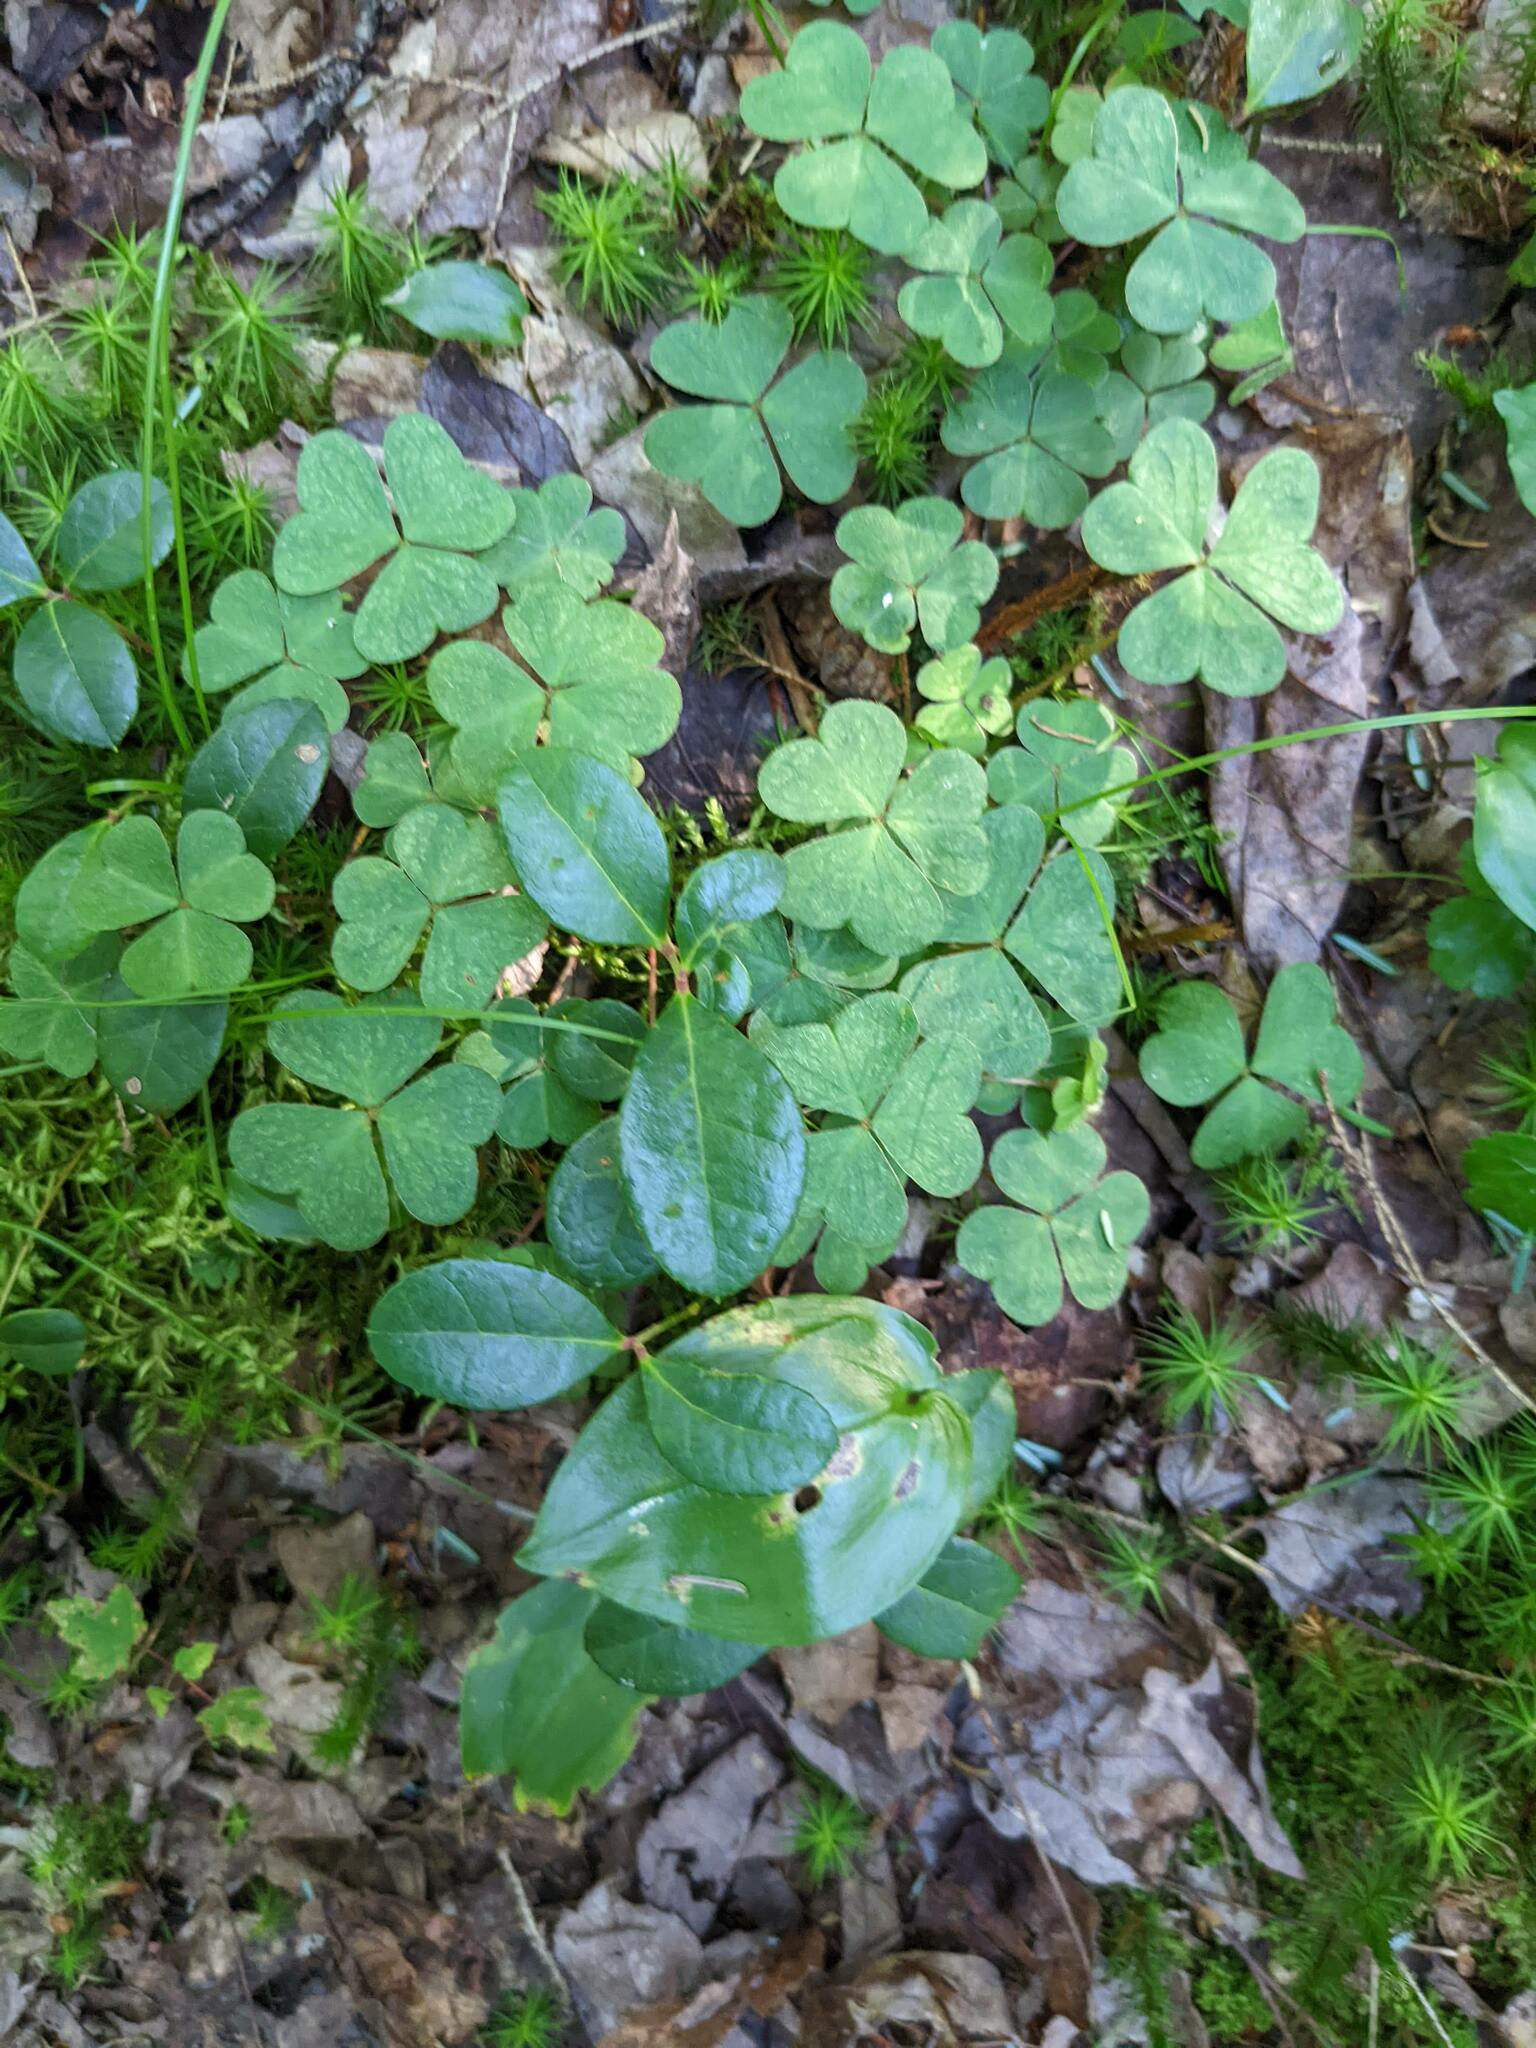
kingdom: Plantae
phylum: Tracheophyta
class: Magnoliopsida
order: Ericales
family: Ericaceae
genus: Gaultheria
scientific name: Gaultheria procumbens
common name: Checkerberry
